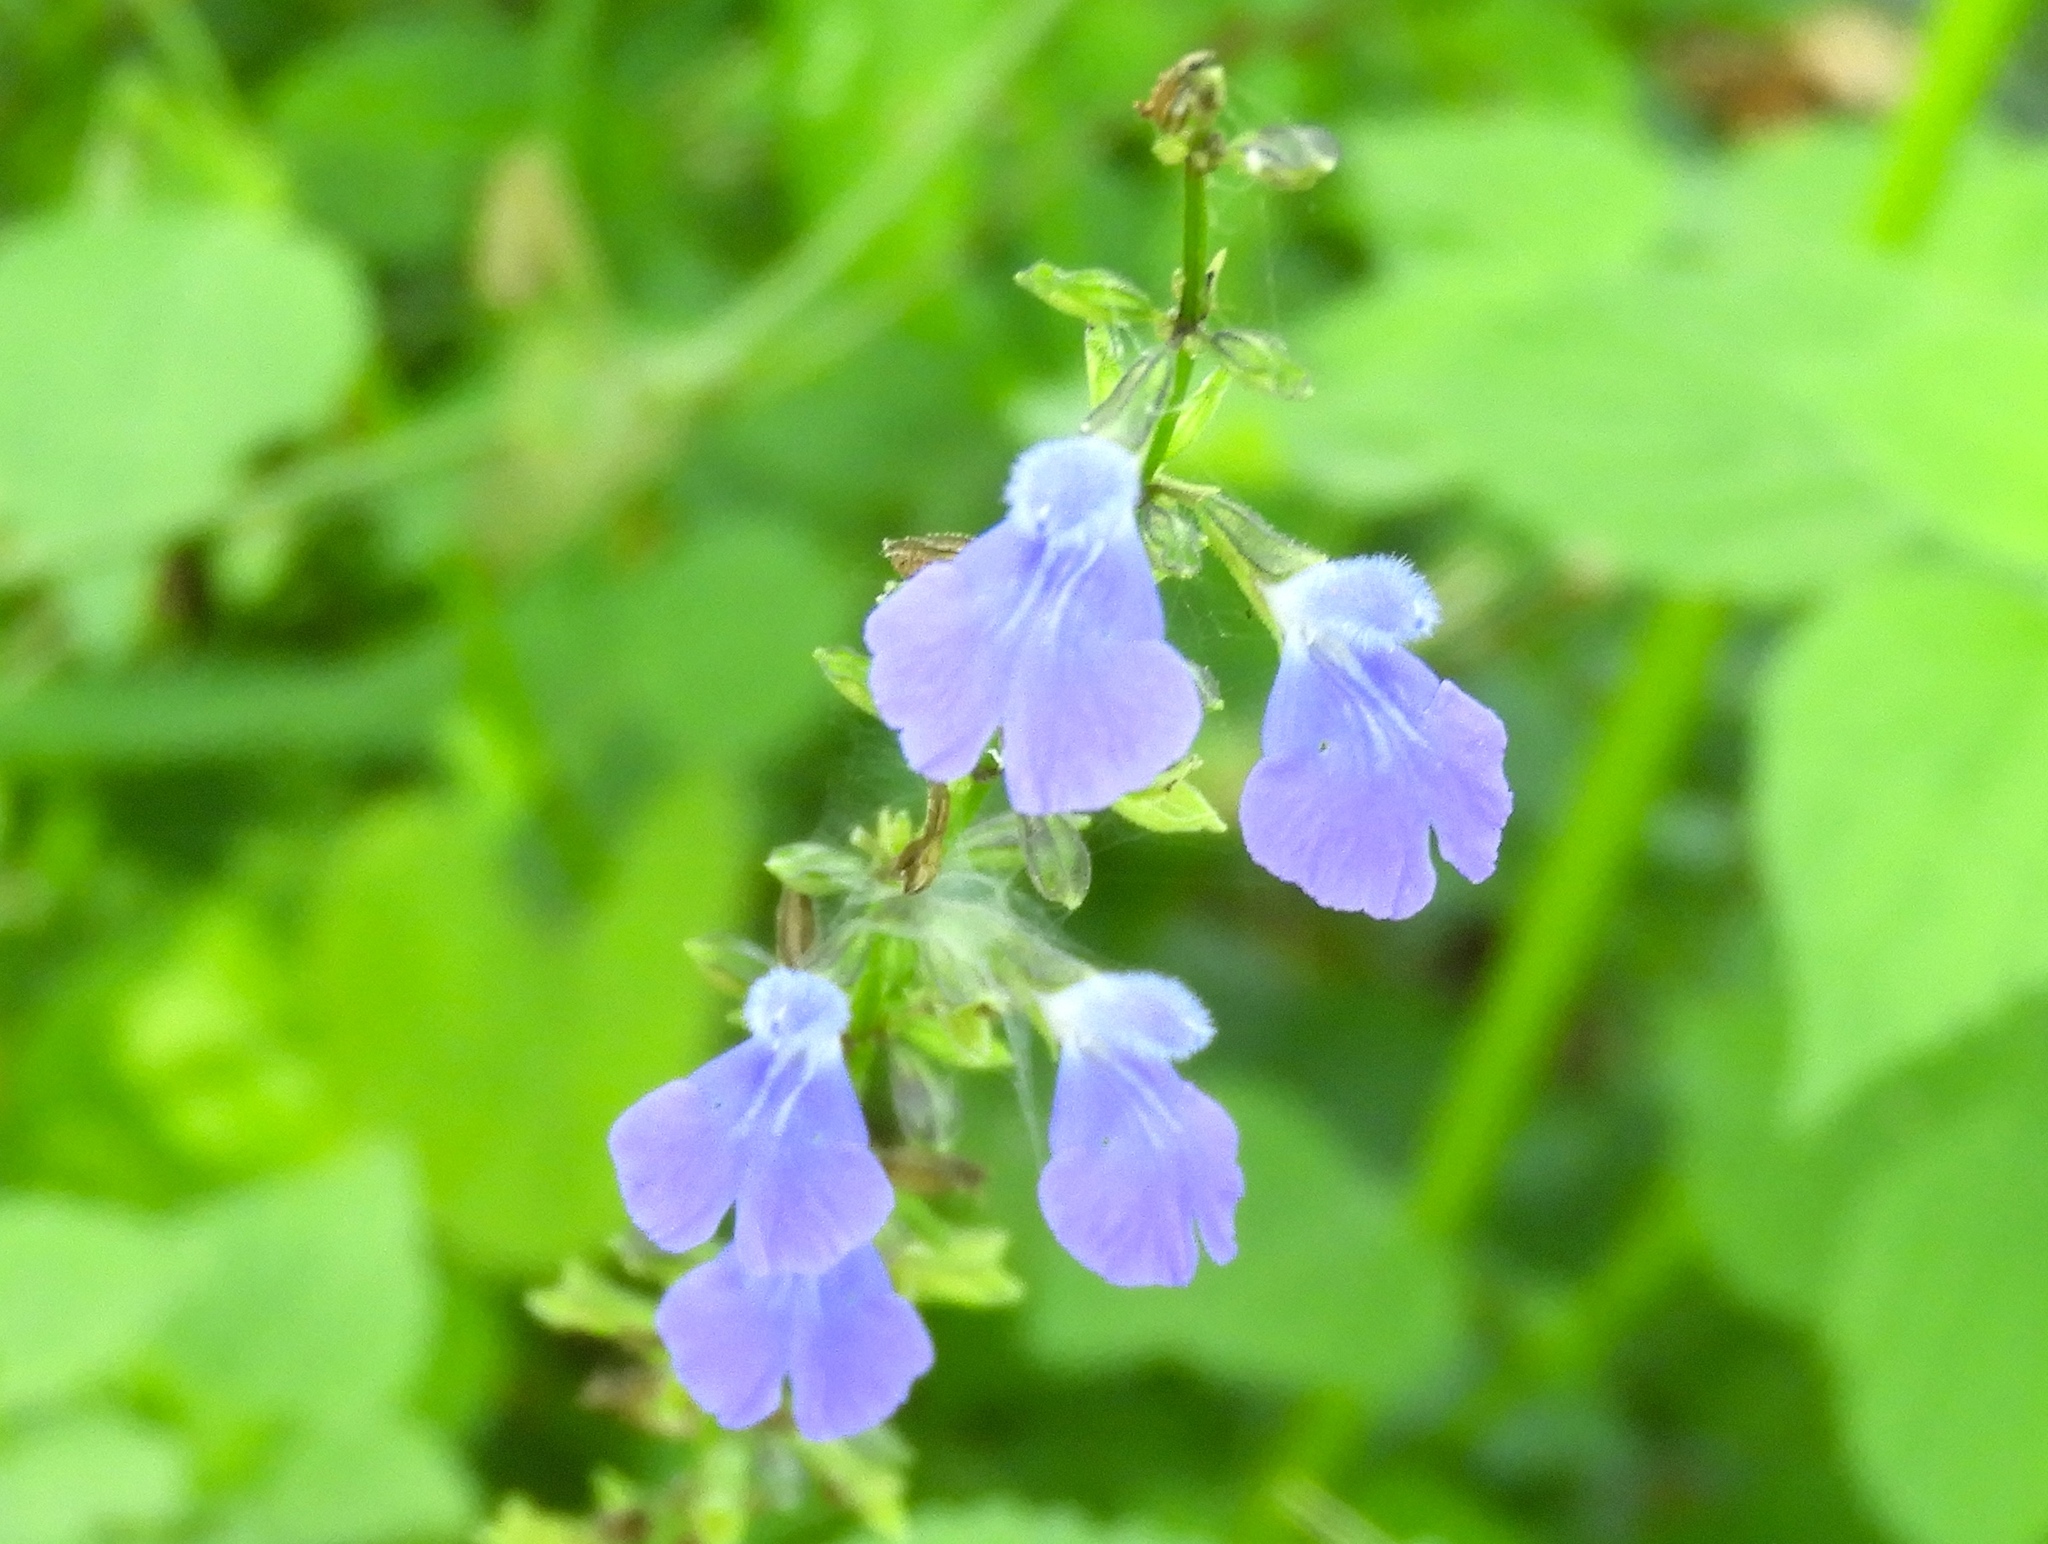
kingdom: Plantae
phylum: Tracheophyta
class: Magnoliopsida
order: Lamiales
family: Lamiaceae
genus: Salvia
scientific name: Salvia languidula
